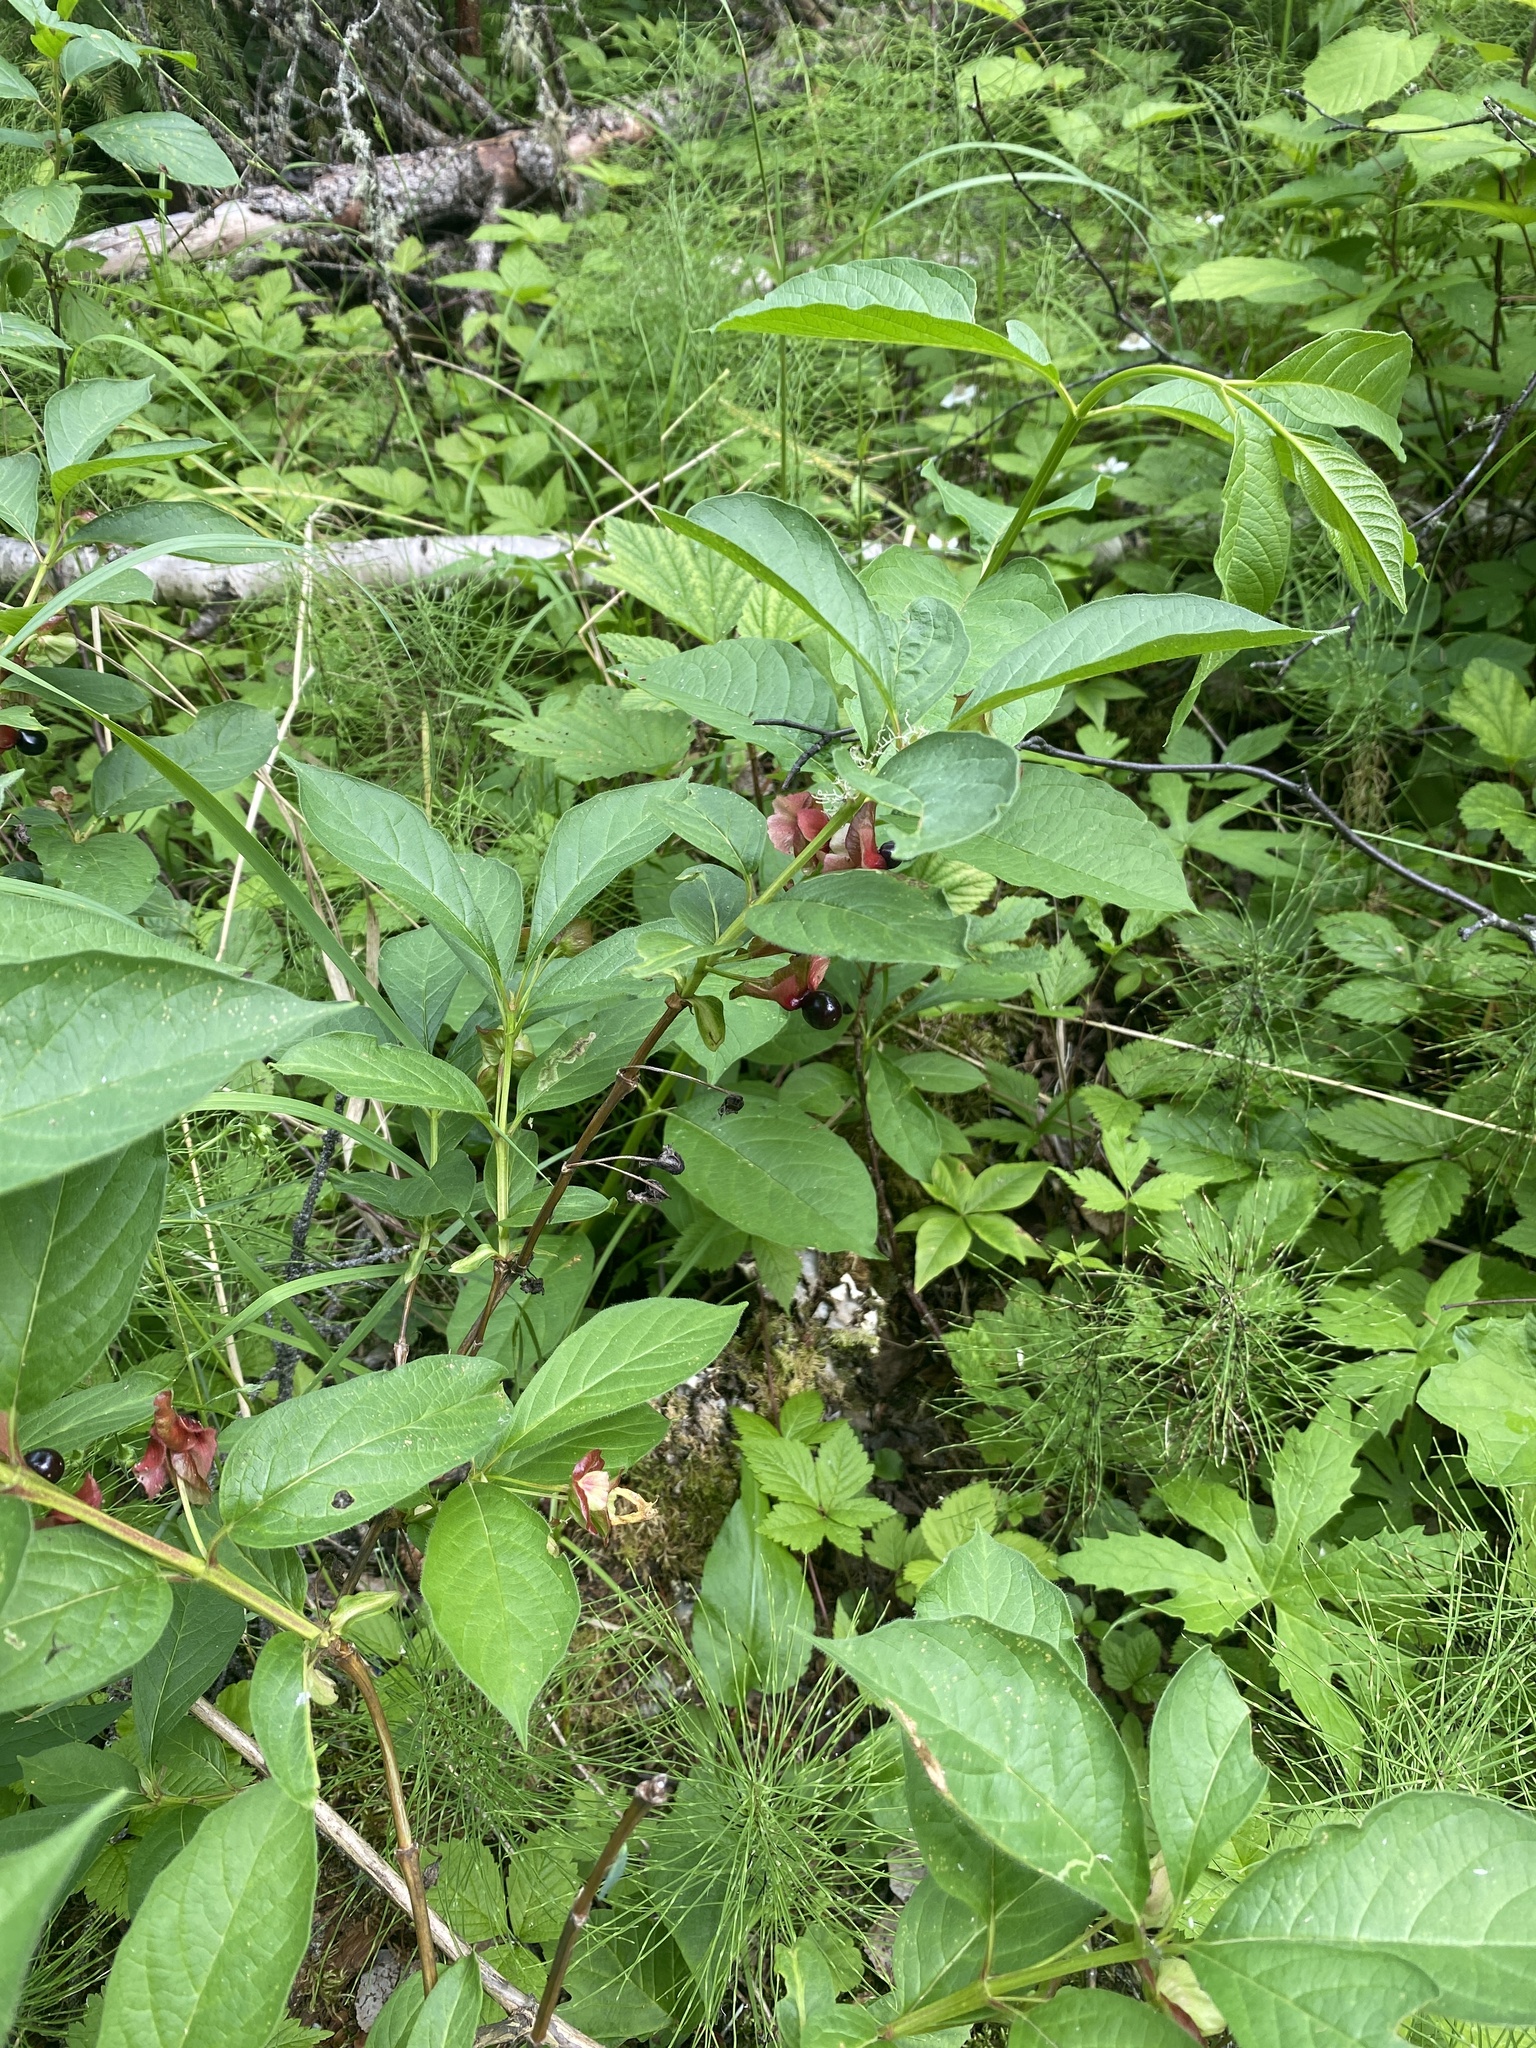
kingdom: Plantae
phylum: Tracheophyta
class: Magnoliopsida
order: Dipsacales
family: Caprifoliaceae
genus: Lonicera
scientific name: Lonicera involucrata
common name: Californian honeysuckle
